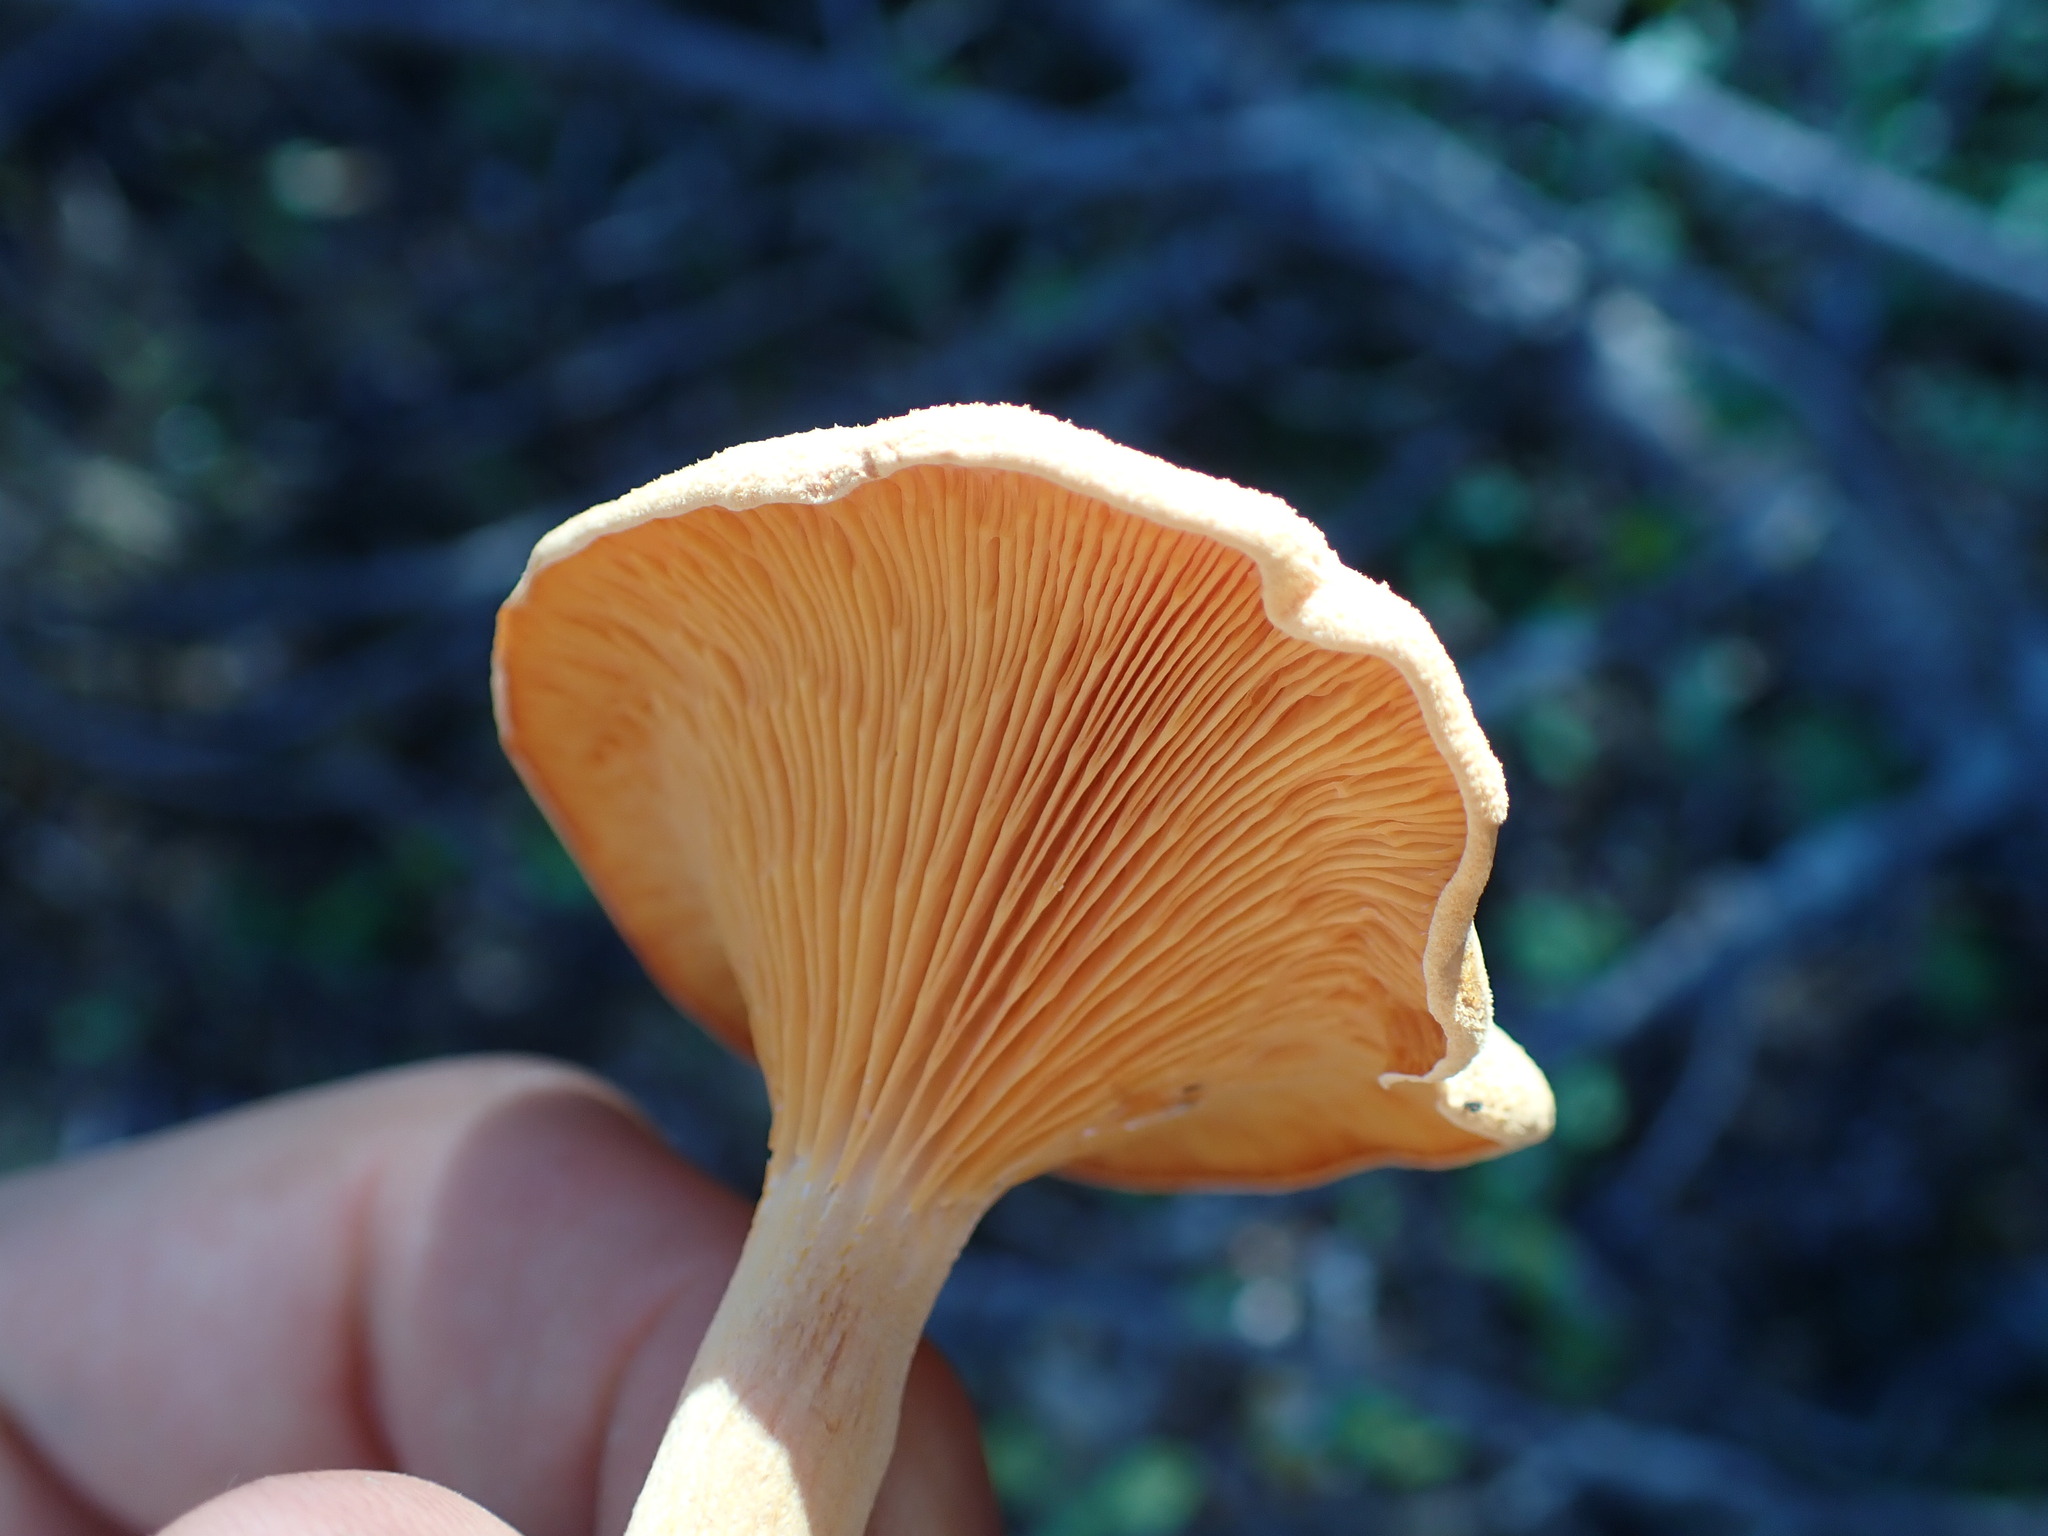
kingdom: Fungi
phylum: Basidiomycota
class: Agaricomycetes
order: Boletales
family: Hygrophoropsidaceae
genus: Hygrophoropsis
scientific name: Hygrophoropsis aurantiaca
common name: False chanterelle
